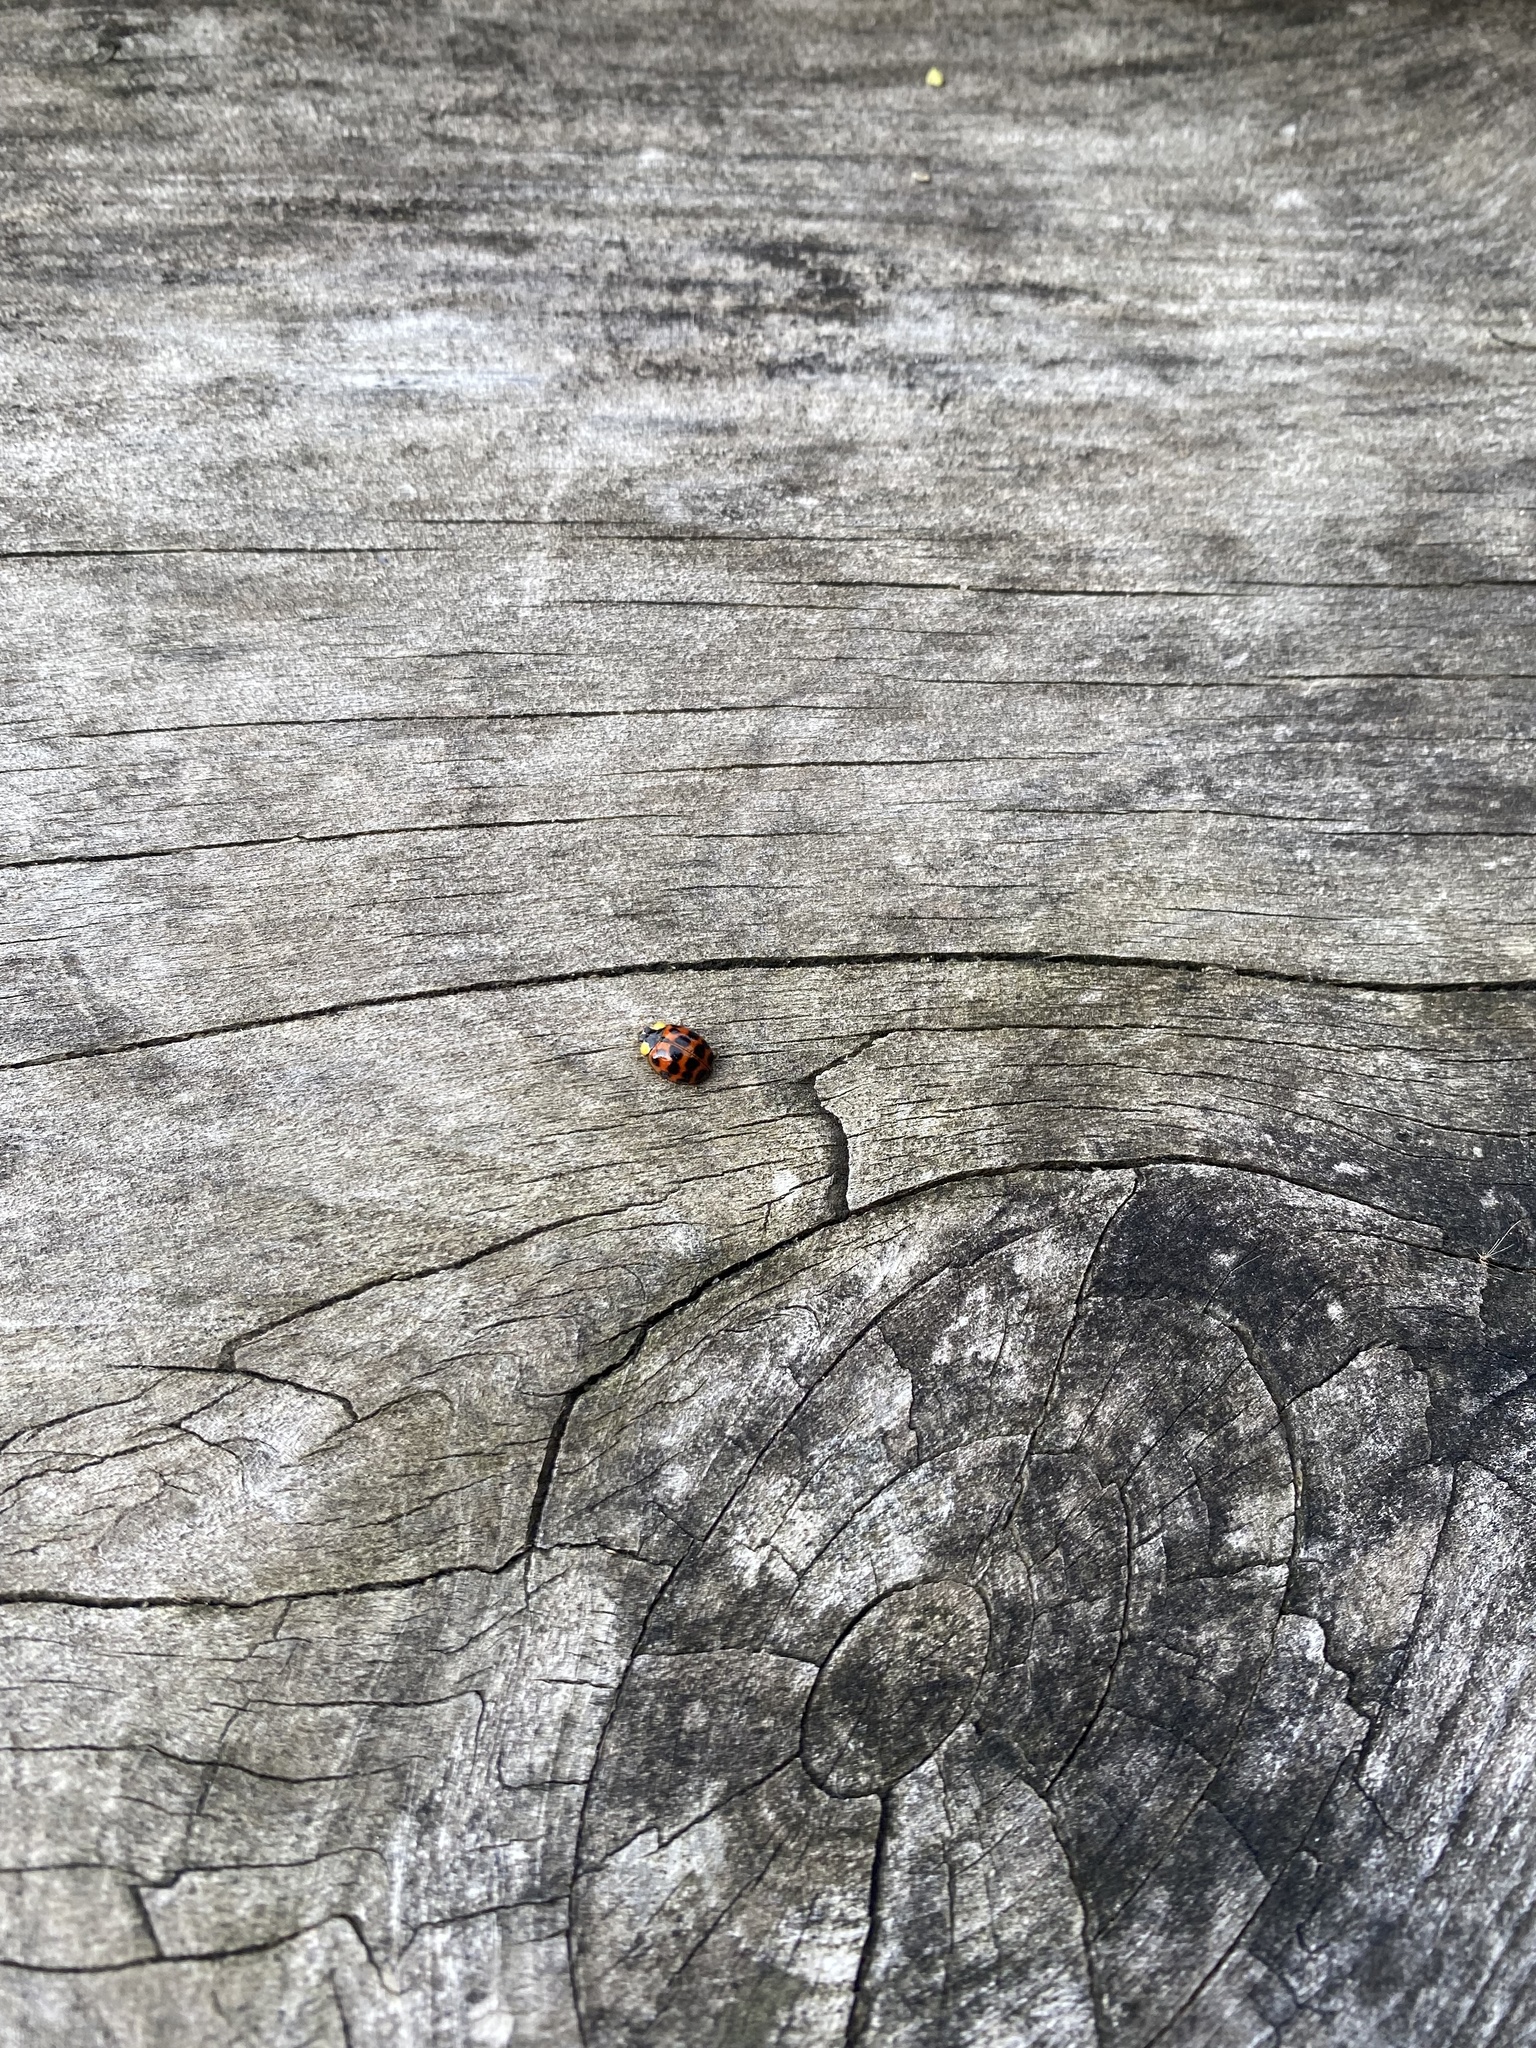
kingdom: Animalia
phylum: Arthropoda
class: Insecta
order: Coleoptera
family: Coccinellidae
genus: Harmonia
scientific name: Harmonia axyridis
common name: Harlequin ladybird
